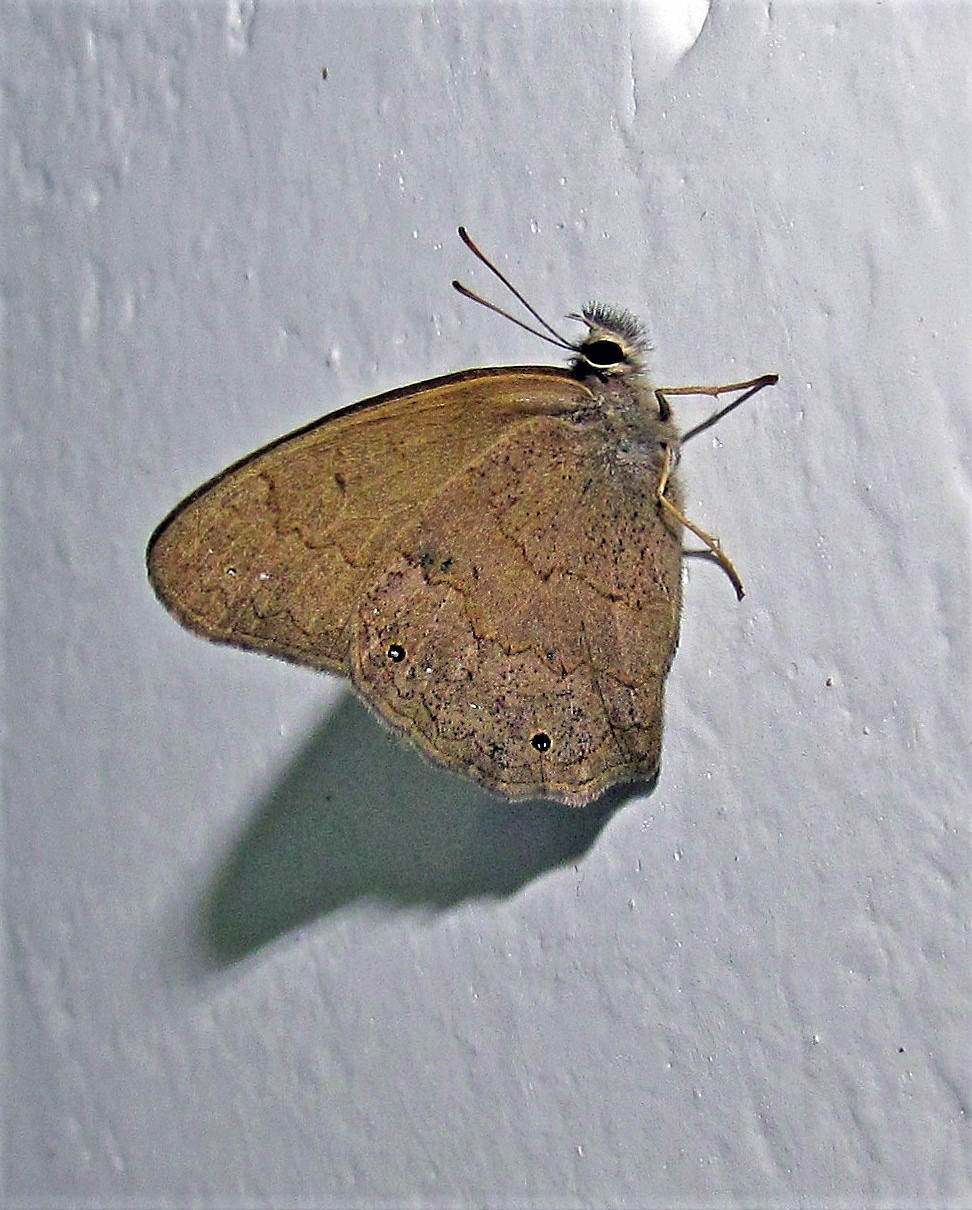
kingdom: Animalia
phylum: Arthropoda
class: Insecta
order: Lepidoptera
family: Nymphalidae
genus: Euptychia
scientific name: Euptychia Cissia eous
